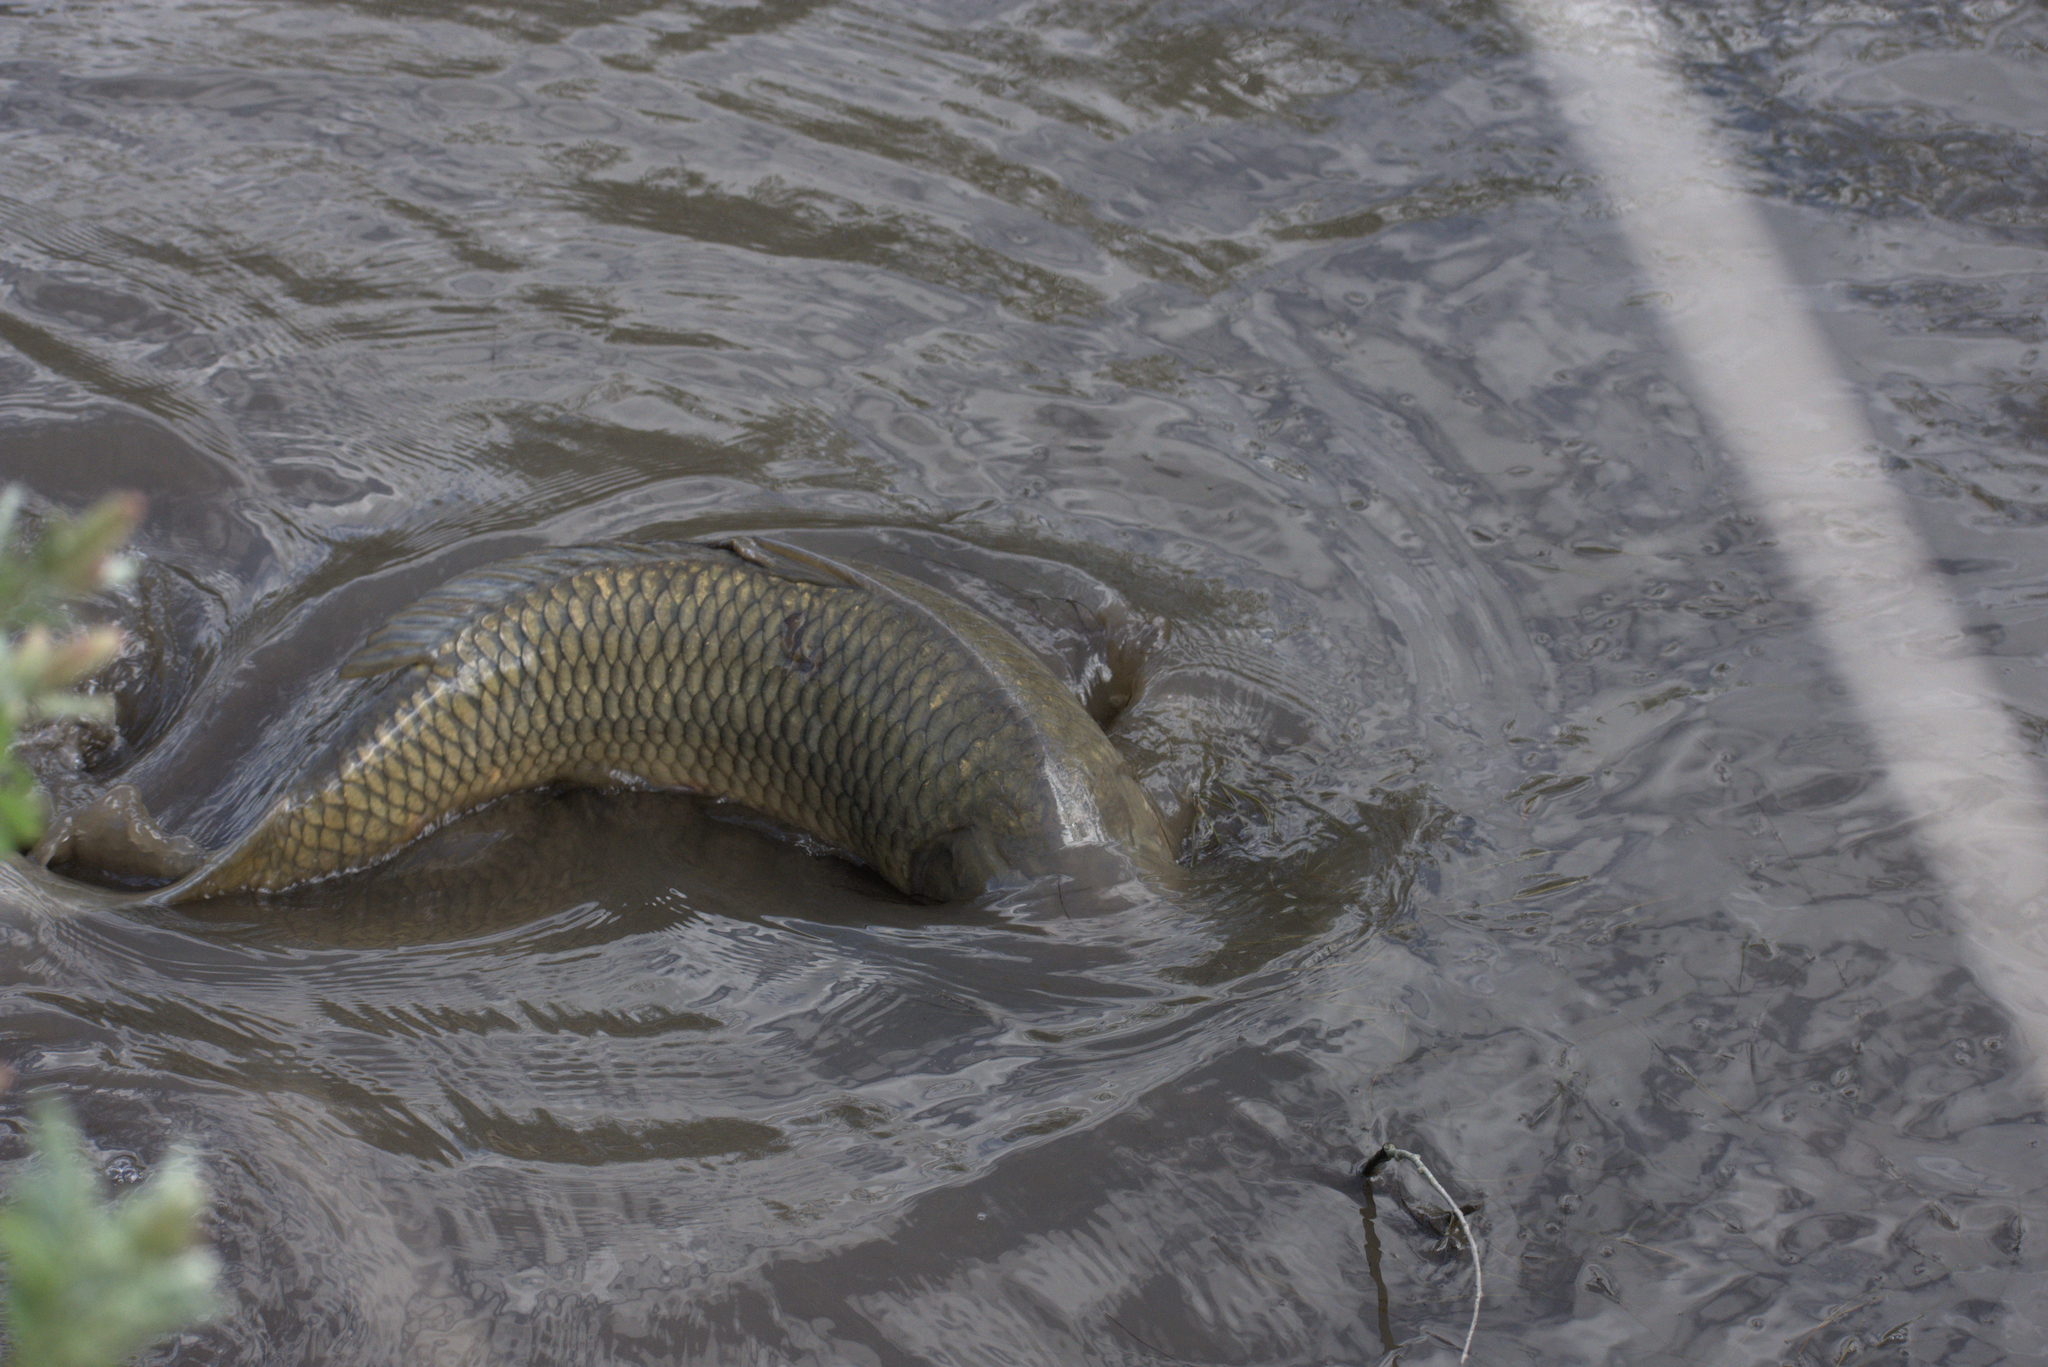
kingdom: Animalia
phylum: Chordata
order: Cypriniformes
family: Cyprinidae
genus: Cyprinus
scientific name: Cyprinus carpio
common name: Common carp
